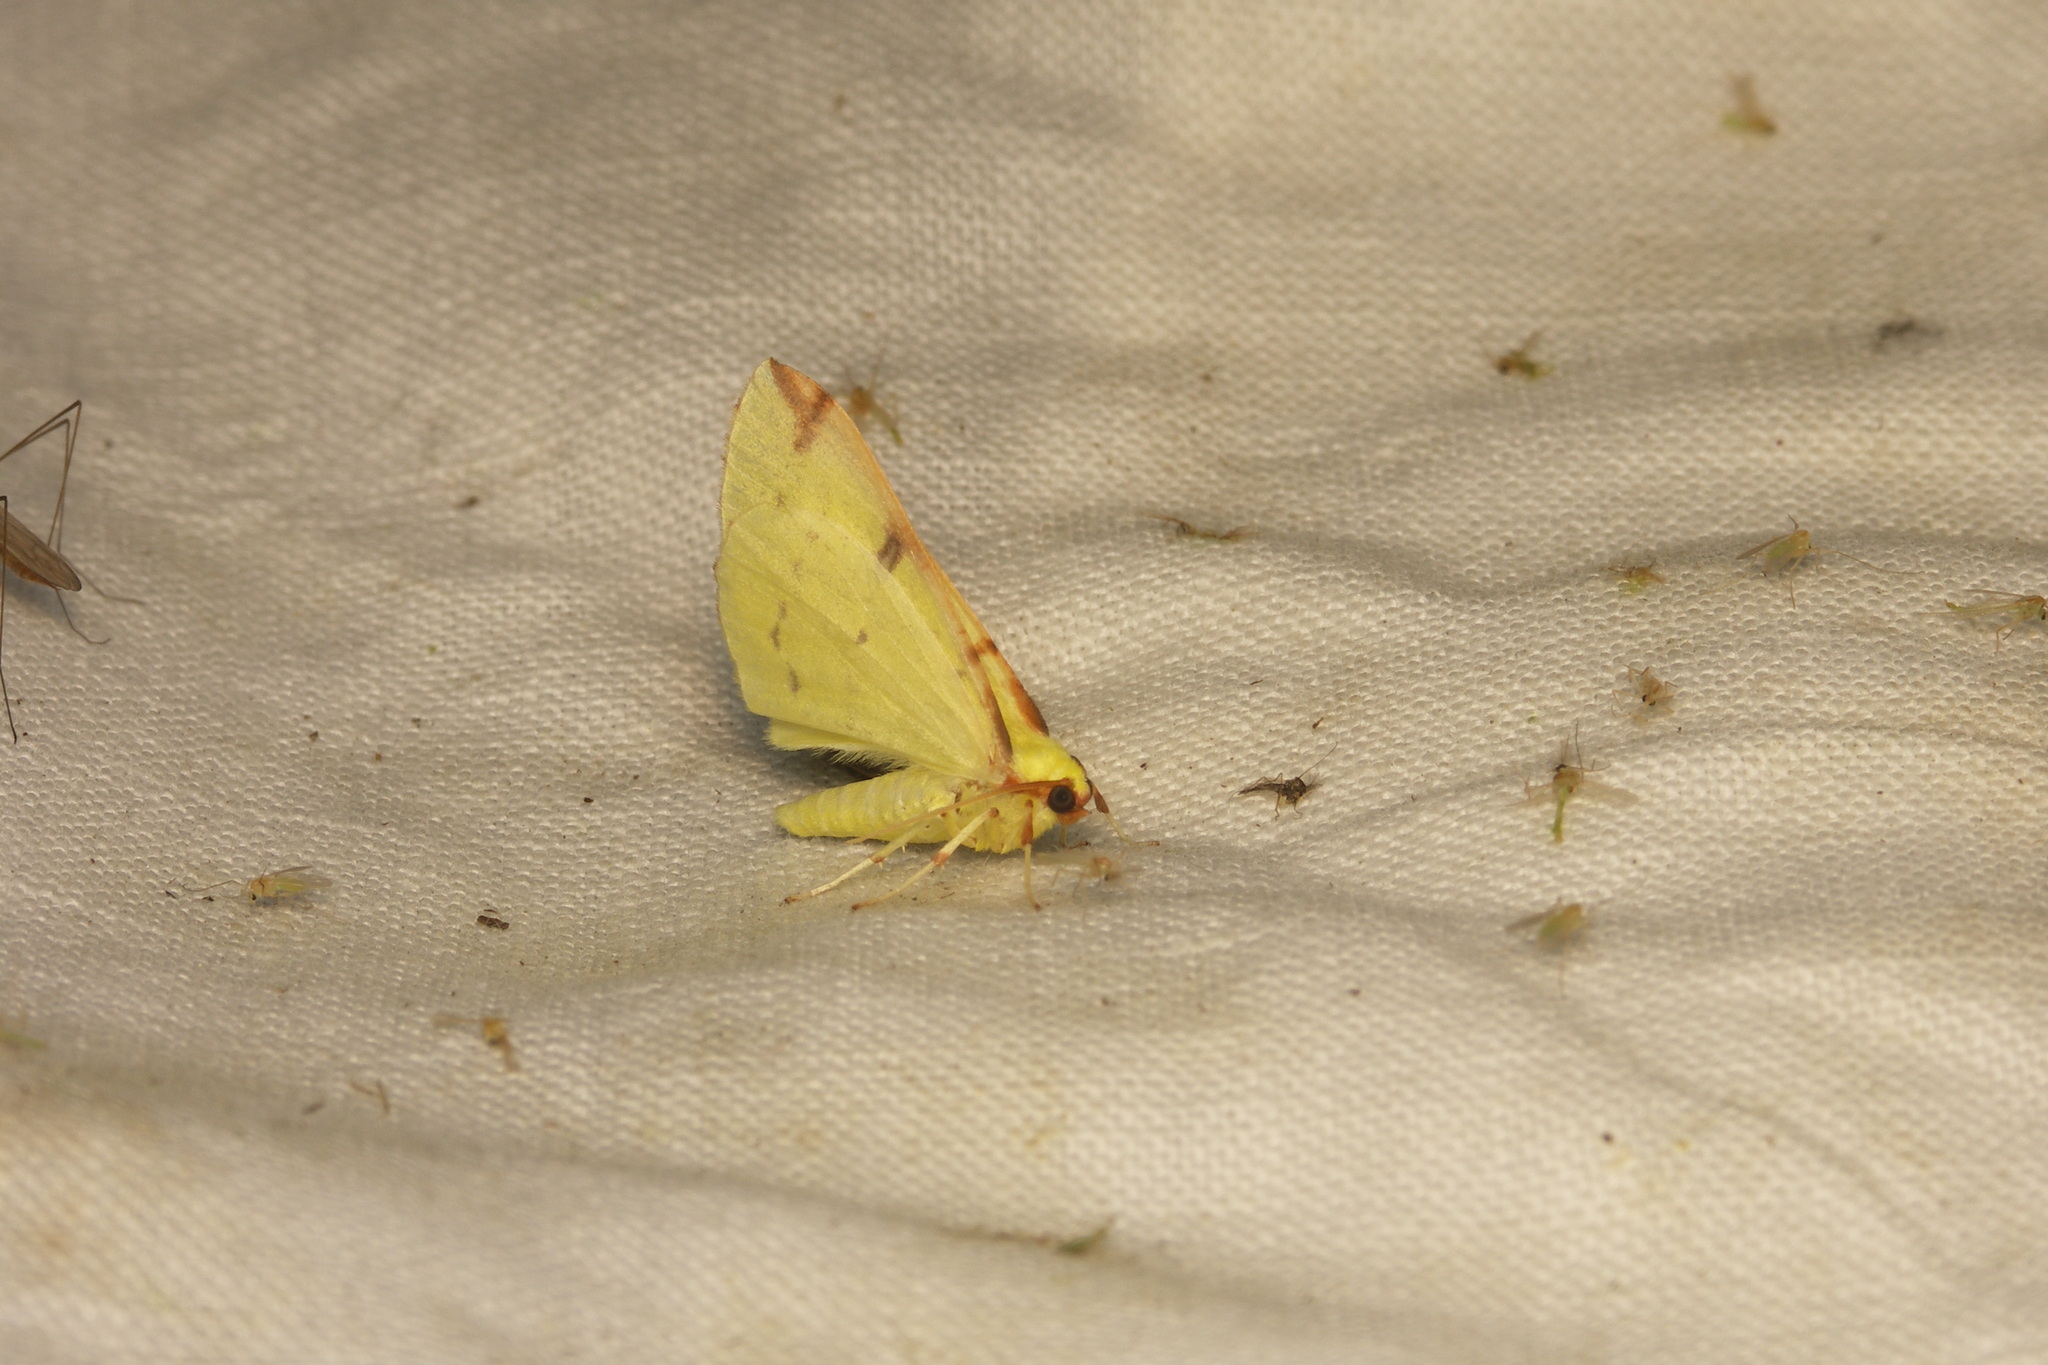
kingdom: Animalia
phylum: Arthropoda
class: Insecta
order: Lepidoptera
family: Geometridae
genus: Opisthograptis
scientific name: Opisthograptis luteolata
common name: Brimstone moth
